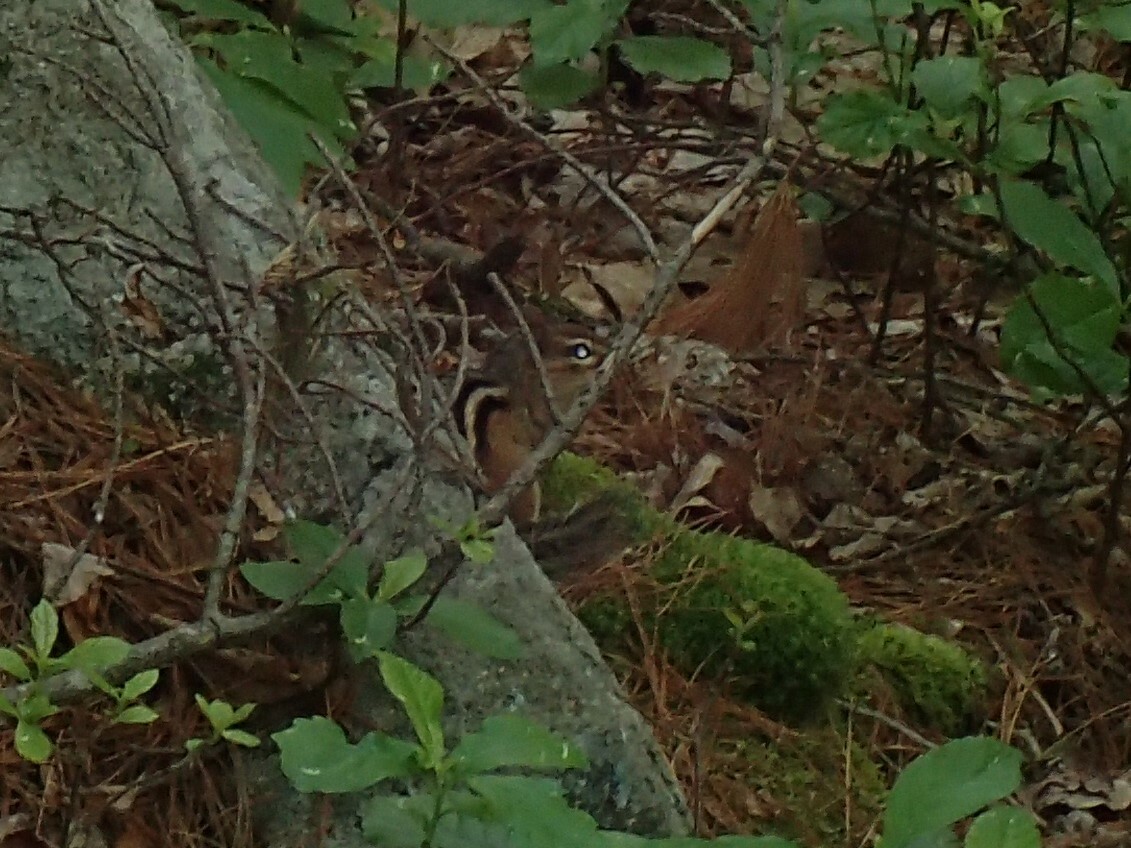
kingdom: Animalia
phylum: Chordata
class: Mammalia
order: Rodentia
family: Sciuridae
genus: Tamias
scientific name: Tamias striatus
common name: Eastern chipmunk
